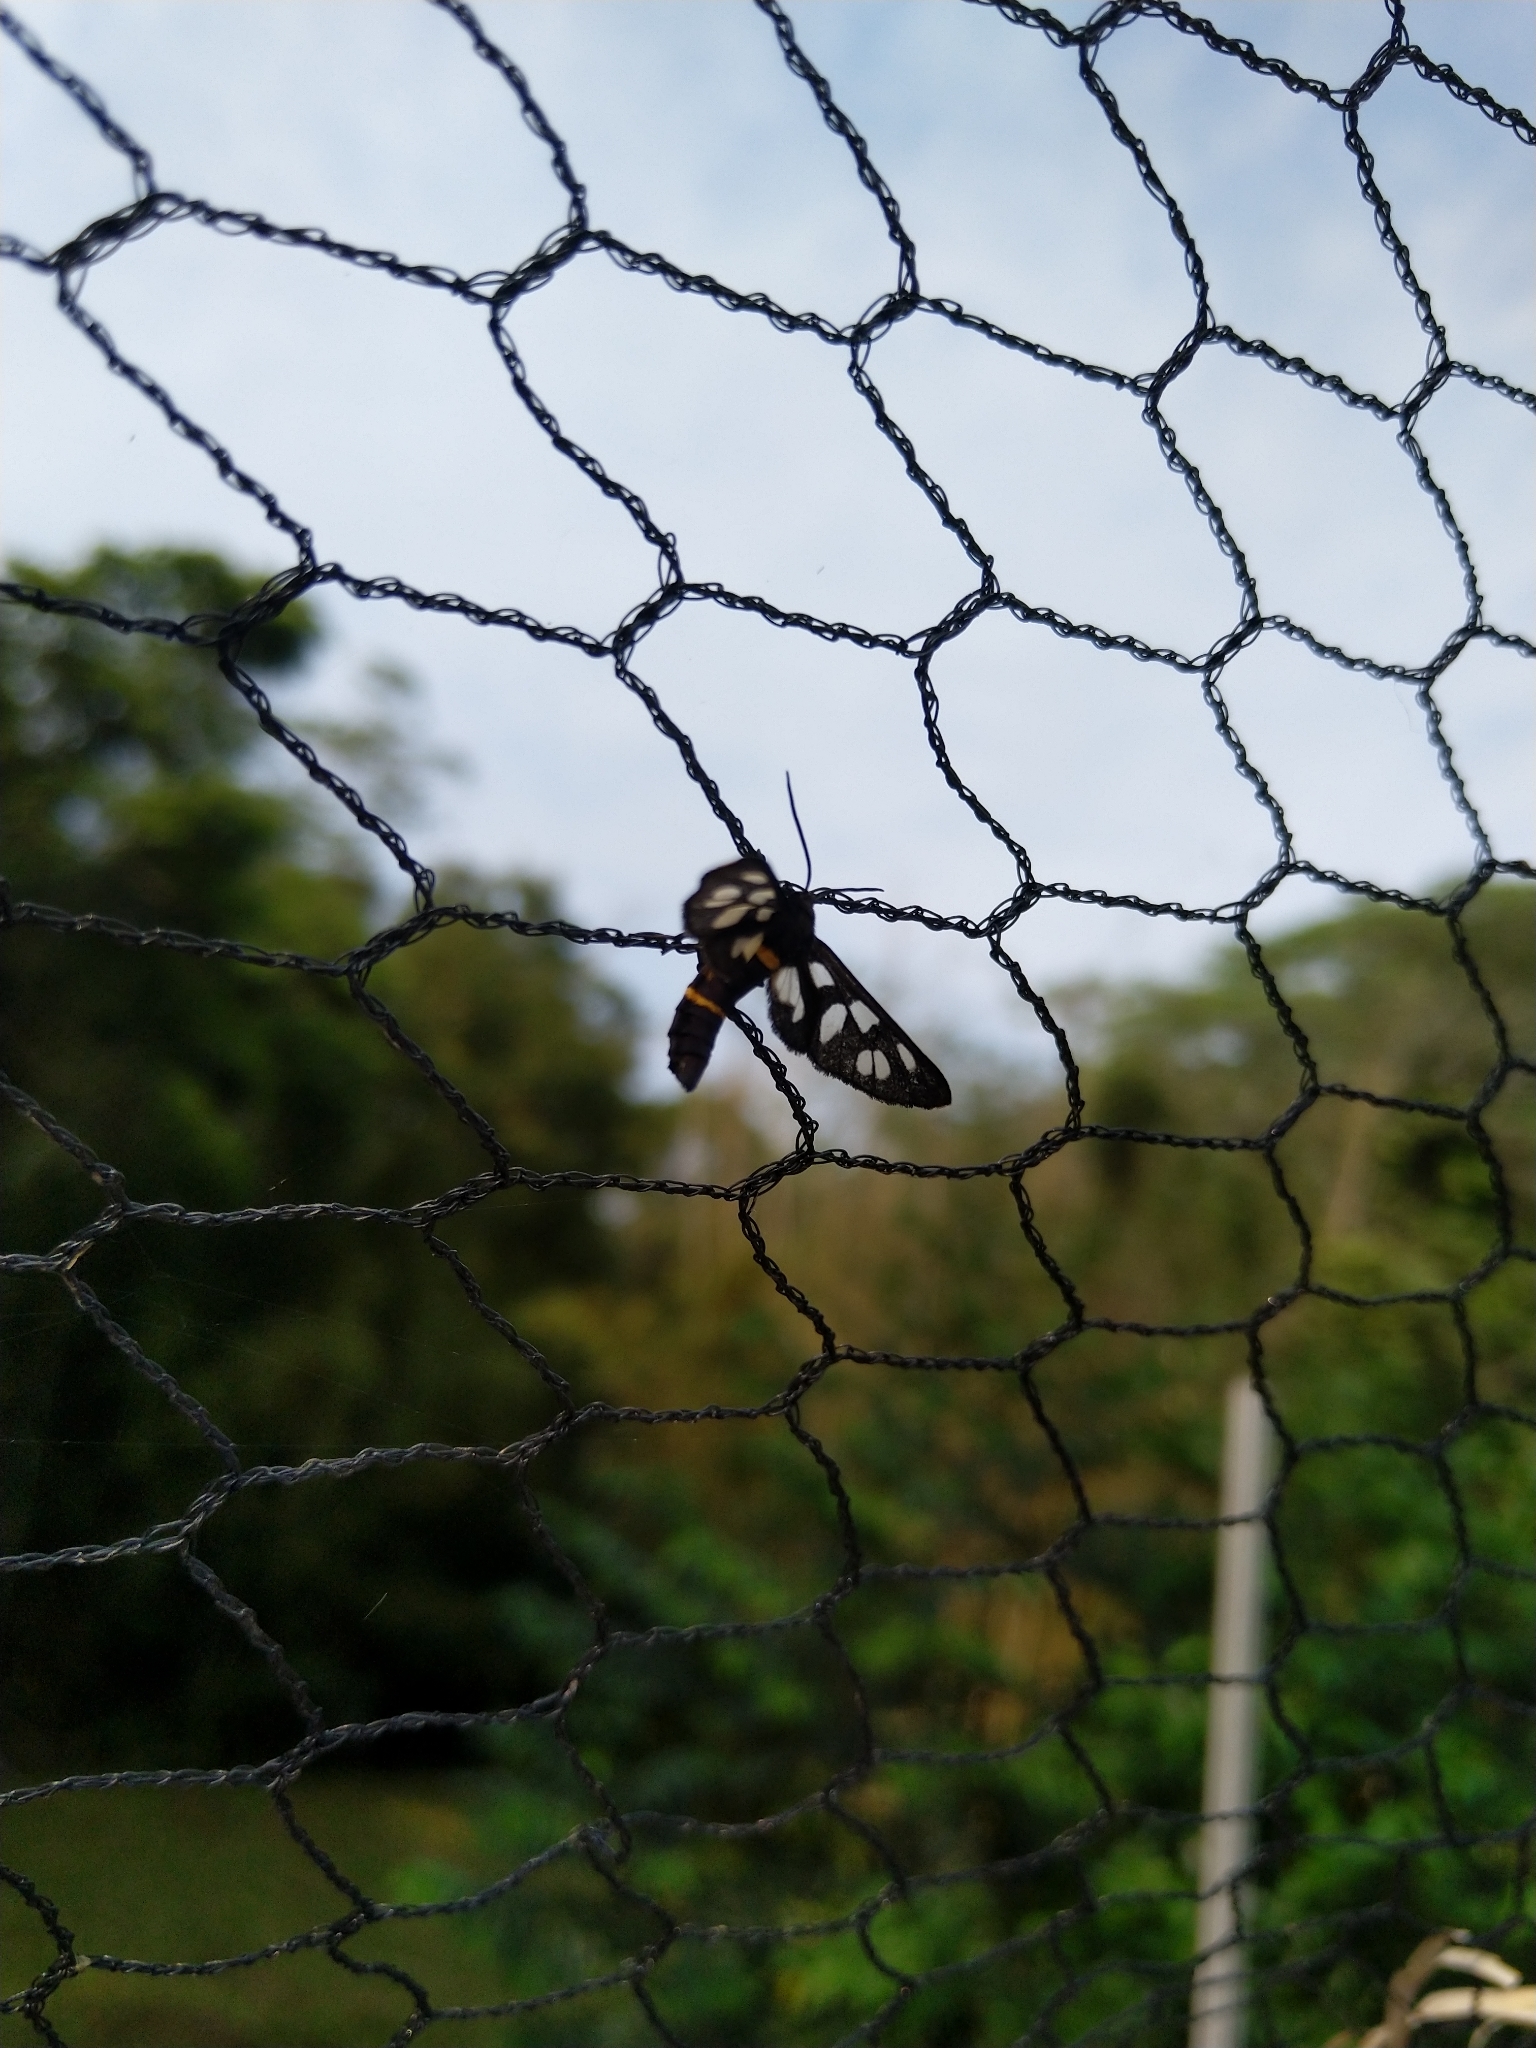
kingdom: Animalia
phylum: Arthropoda
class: Insecta
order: Lepidoptera
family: Erebidae
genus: Amata
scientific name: Amata huebneri
